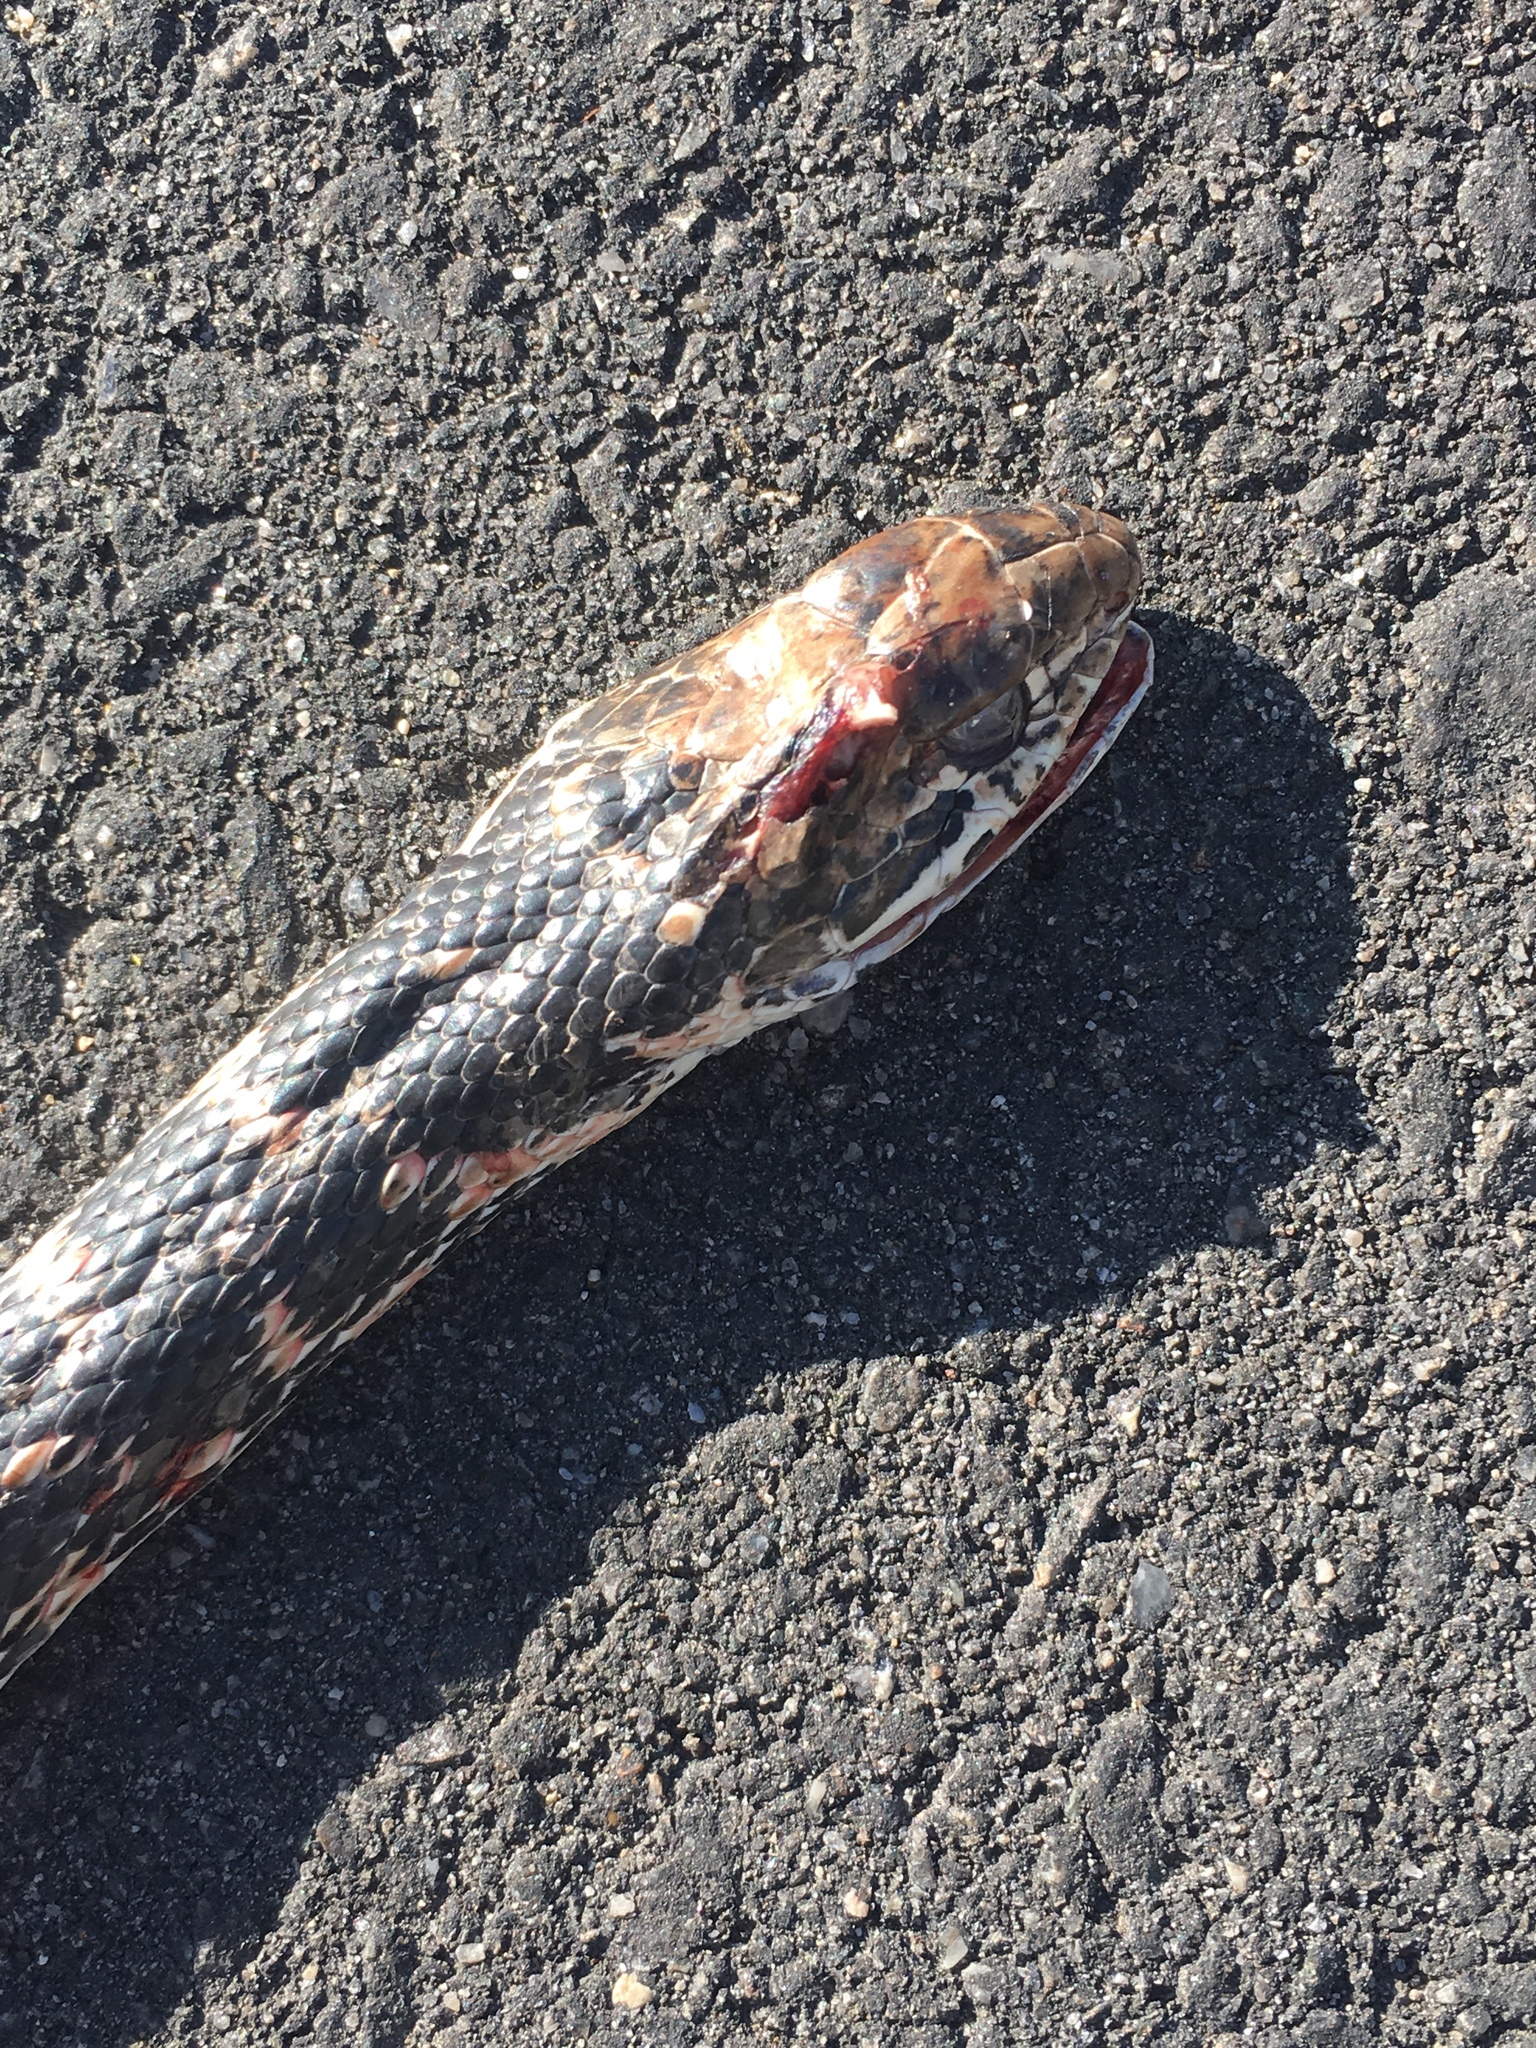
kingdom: Animalia
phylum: Chordata
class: Squamata
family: Colubridae
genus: Masticophis
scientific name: Masticophis flagellum
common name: Coachwhip
